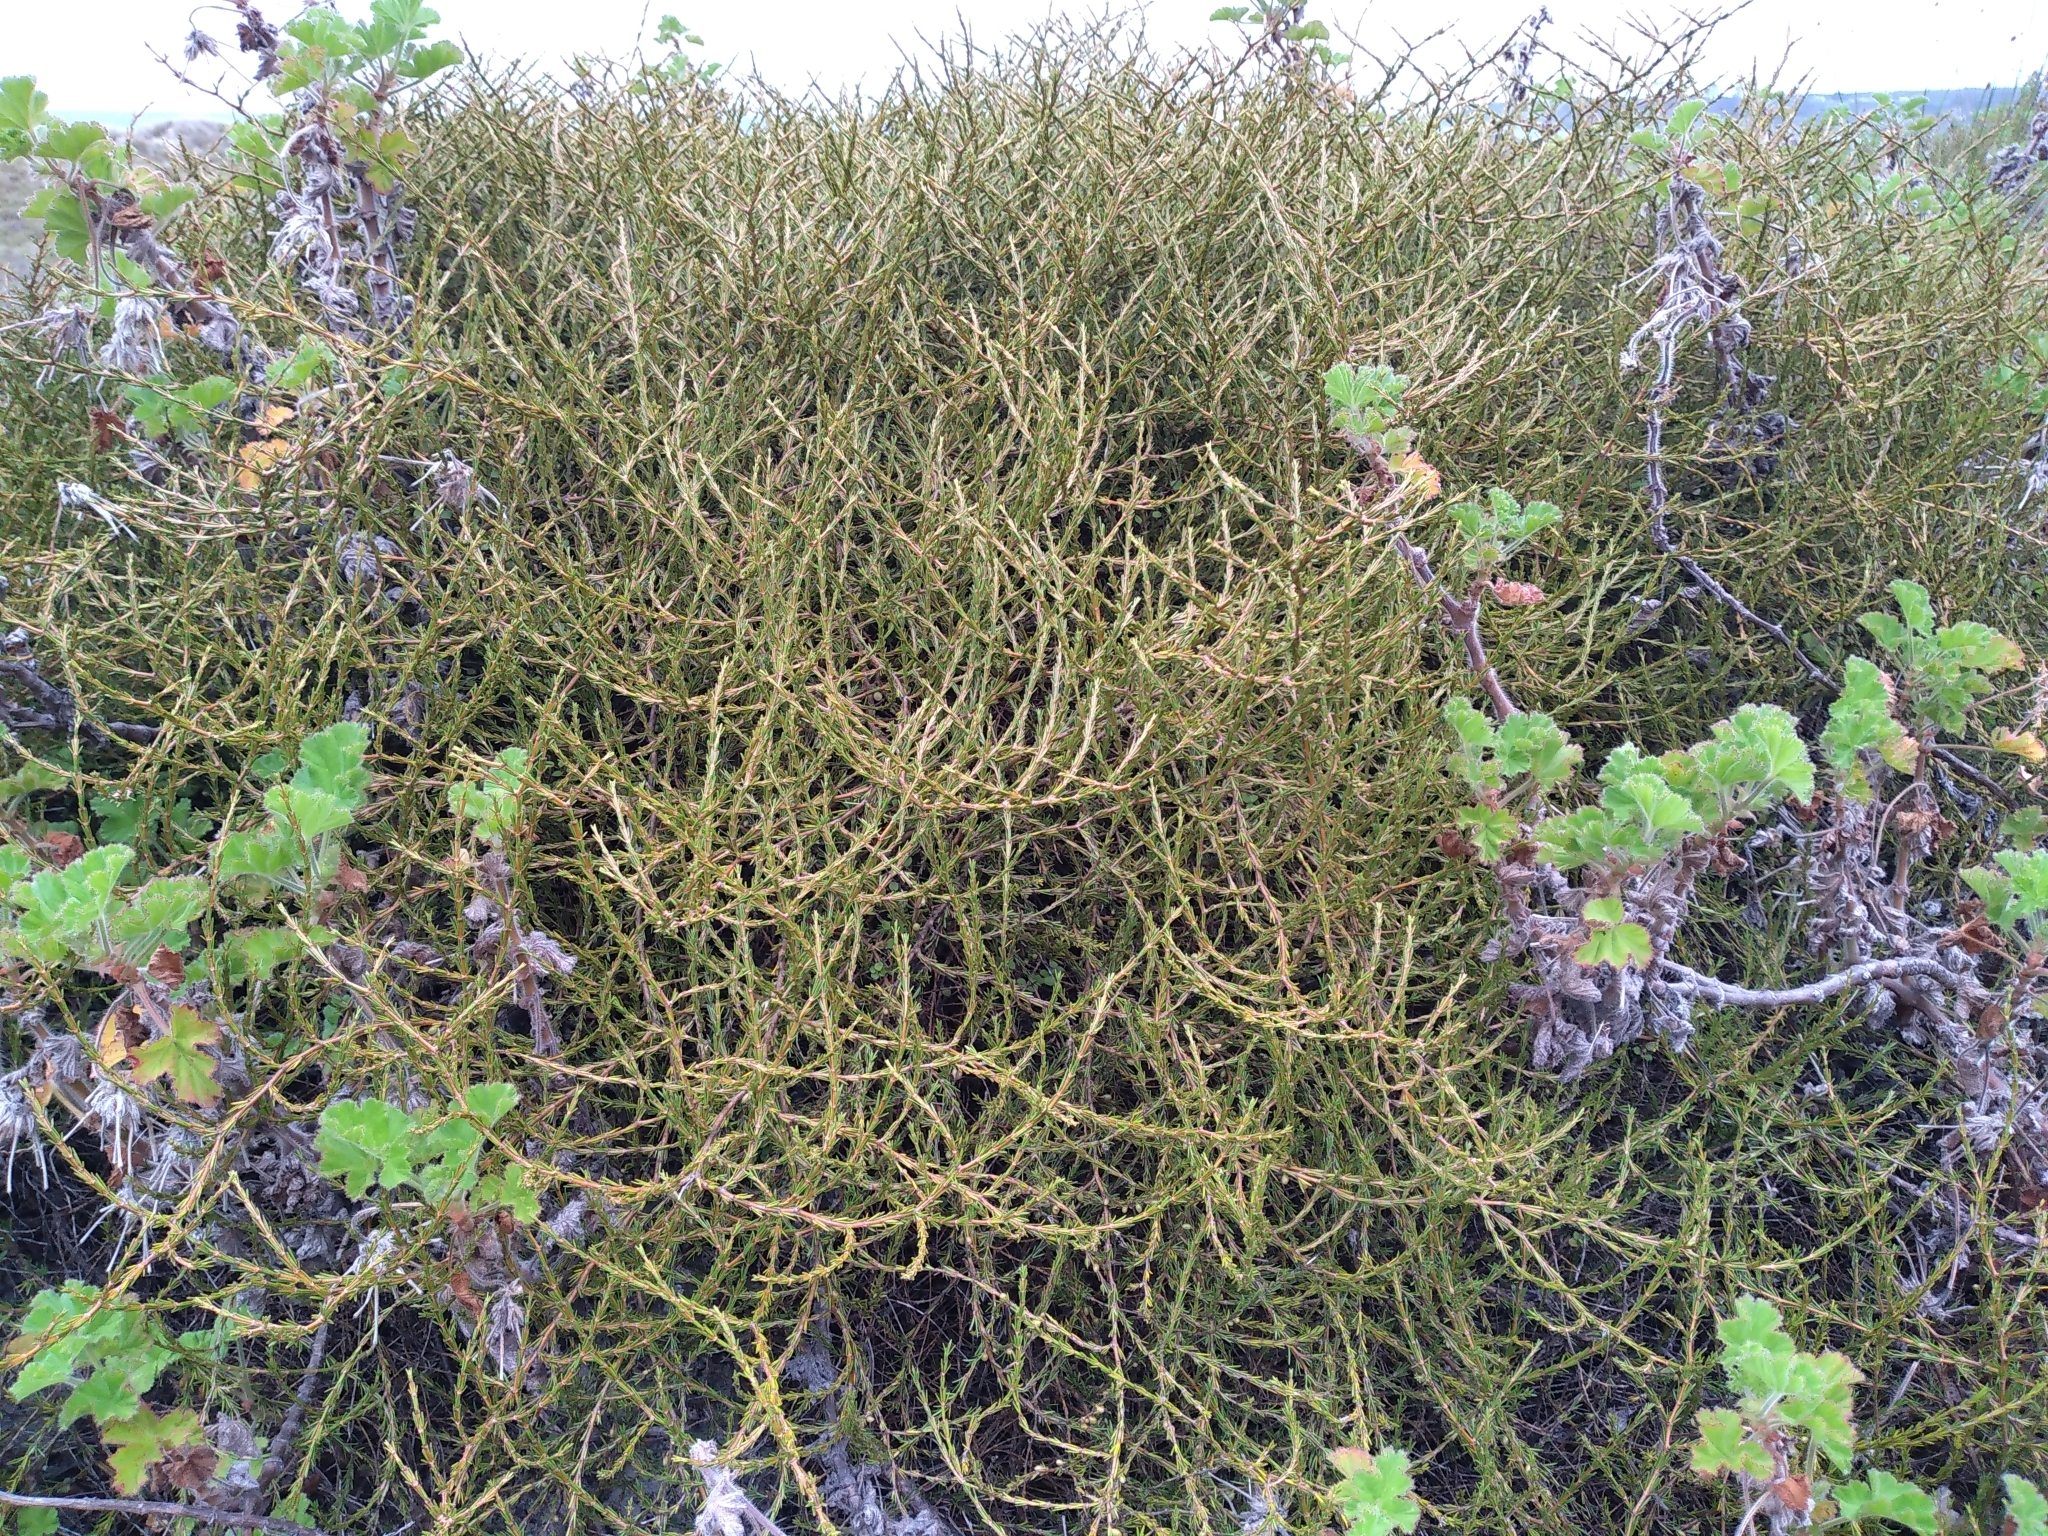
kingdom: Plantae
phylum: Tracheophyta
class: Magnoliopsida
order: Gentianales
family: Rubiaceae
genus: Coprosma
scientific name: Coprosma acerosa
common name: Sand coprosma
